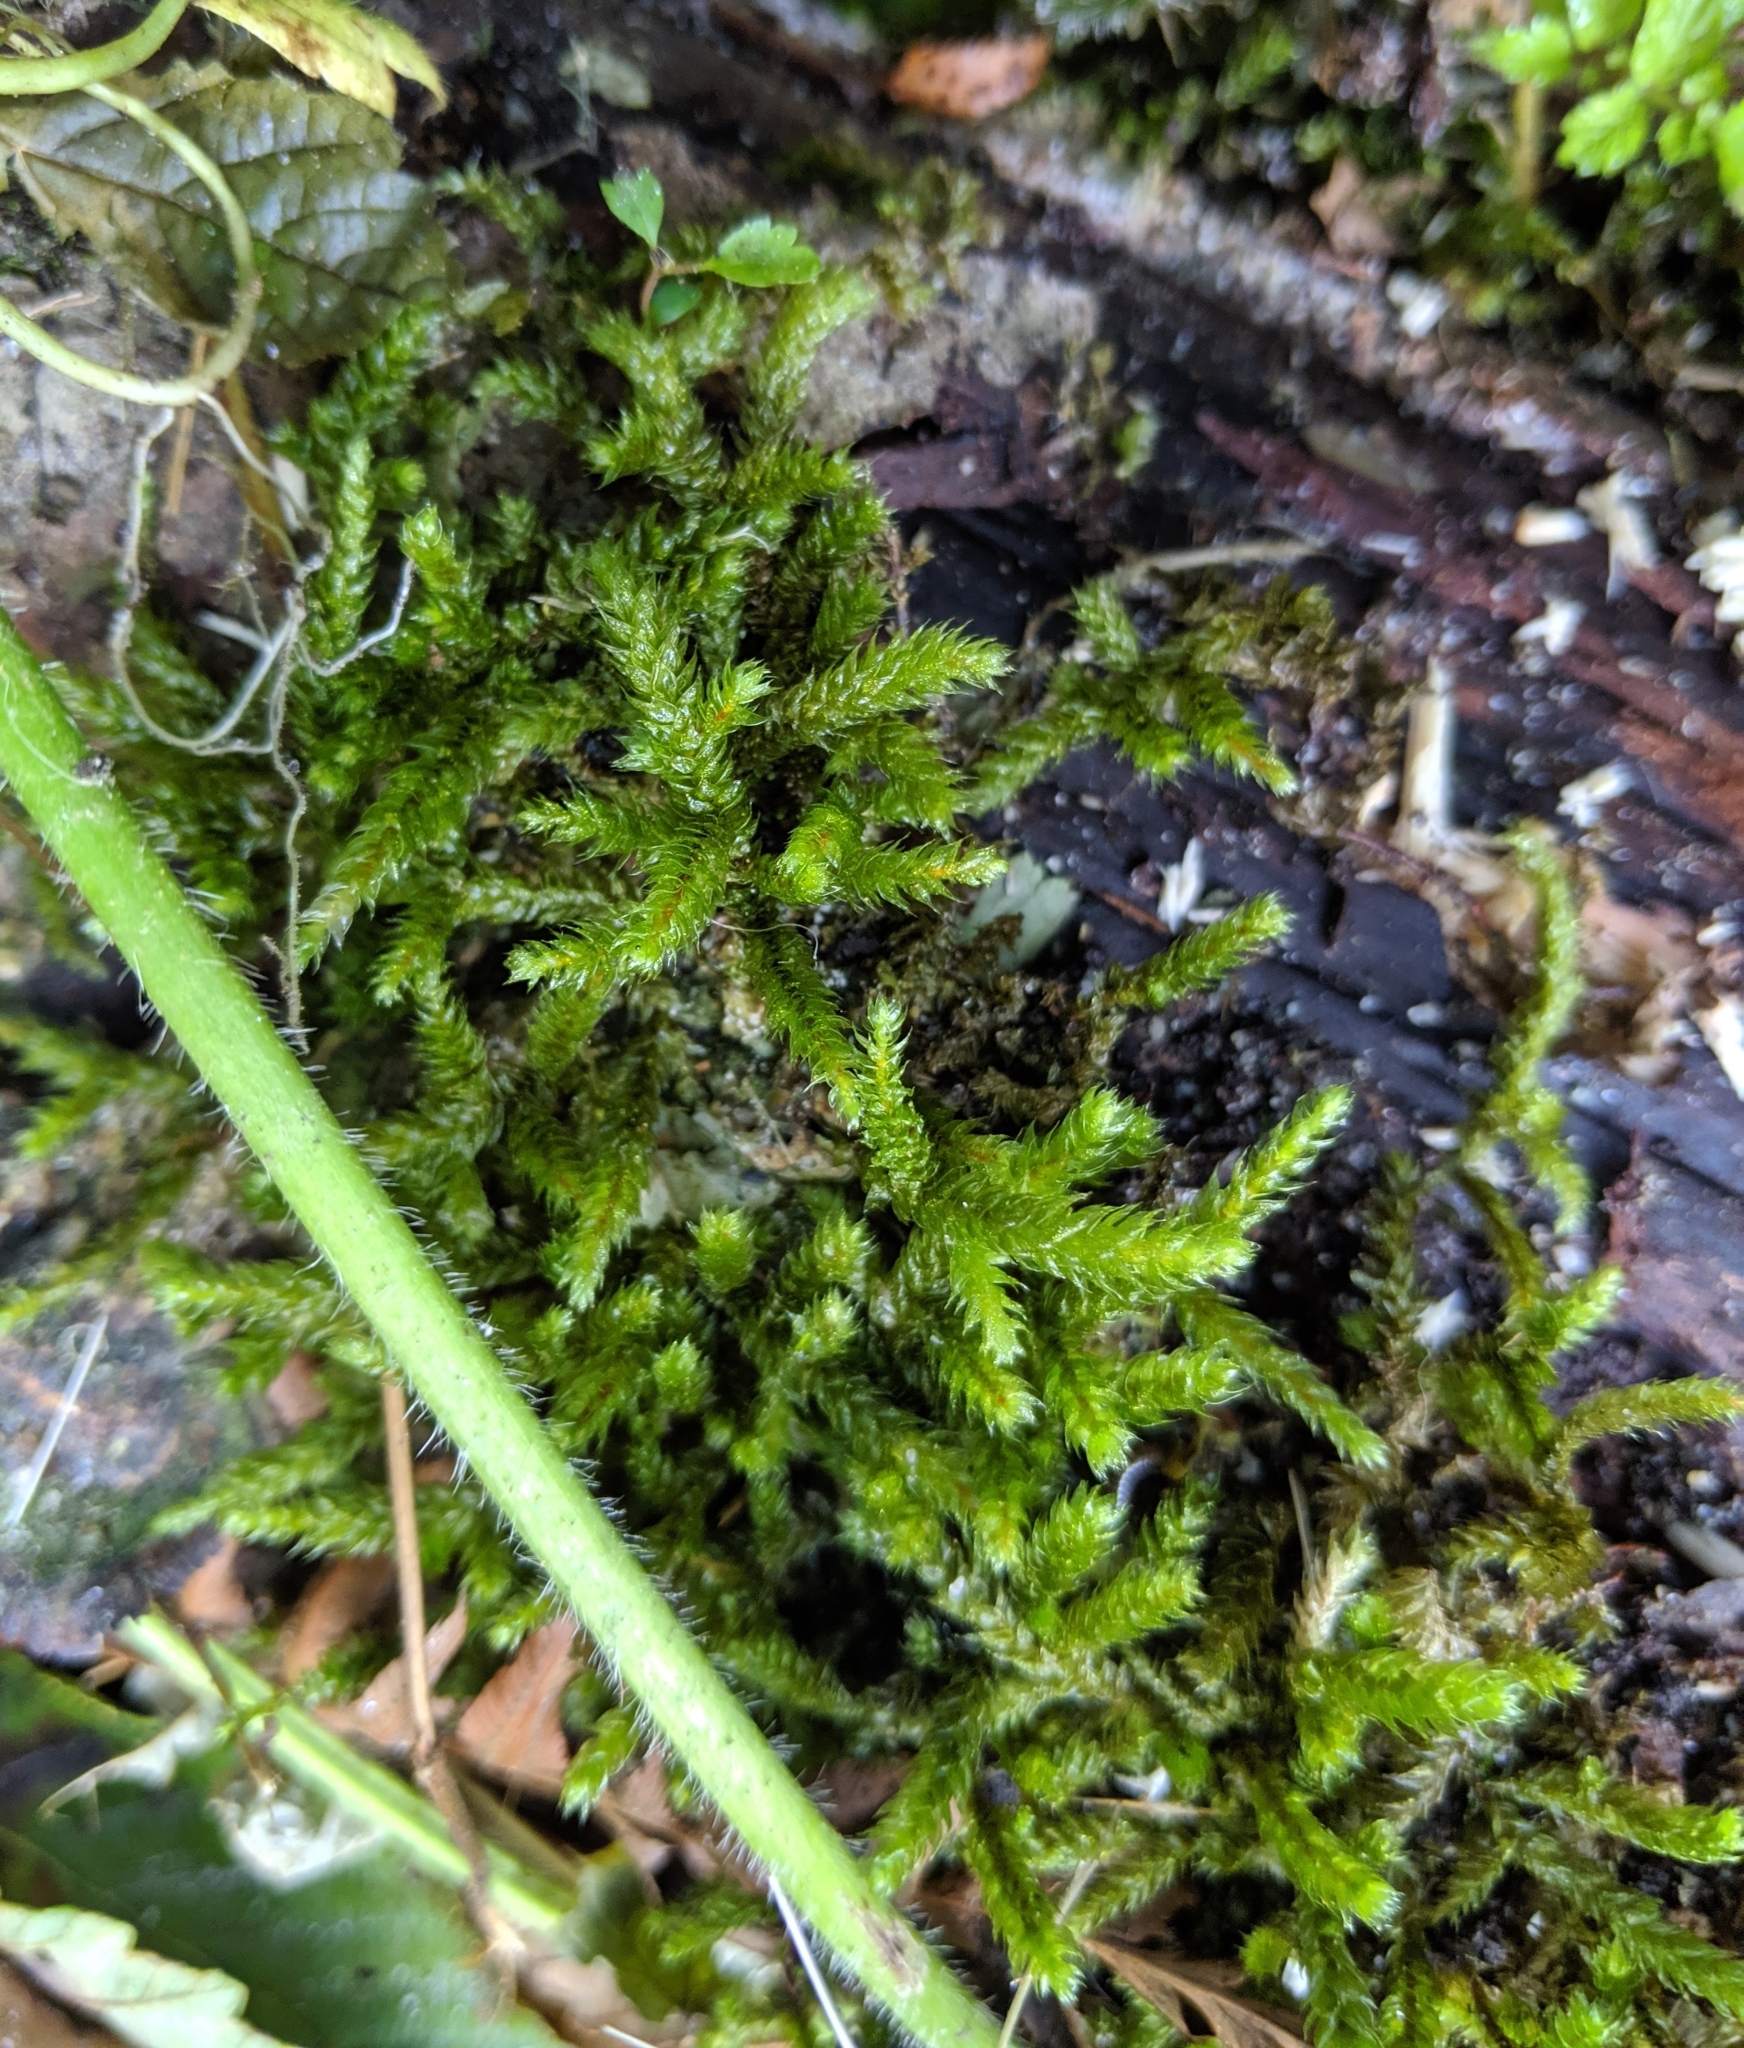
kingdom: Plantae
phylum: Bryophyta
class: Bryopsida
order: Hypnales
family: Hylocomiaceae
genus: Rhytidiopsis
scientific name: Rhytidiopsis robusta
